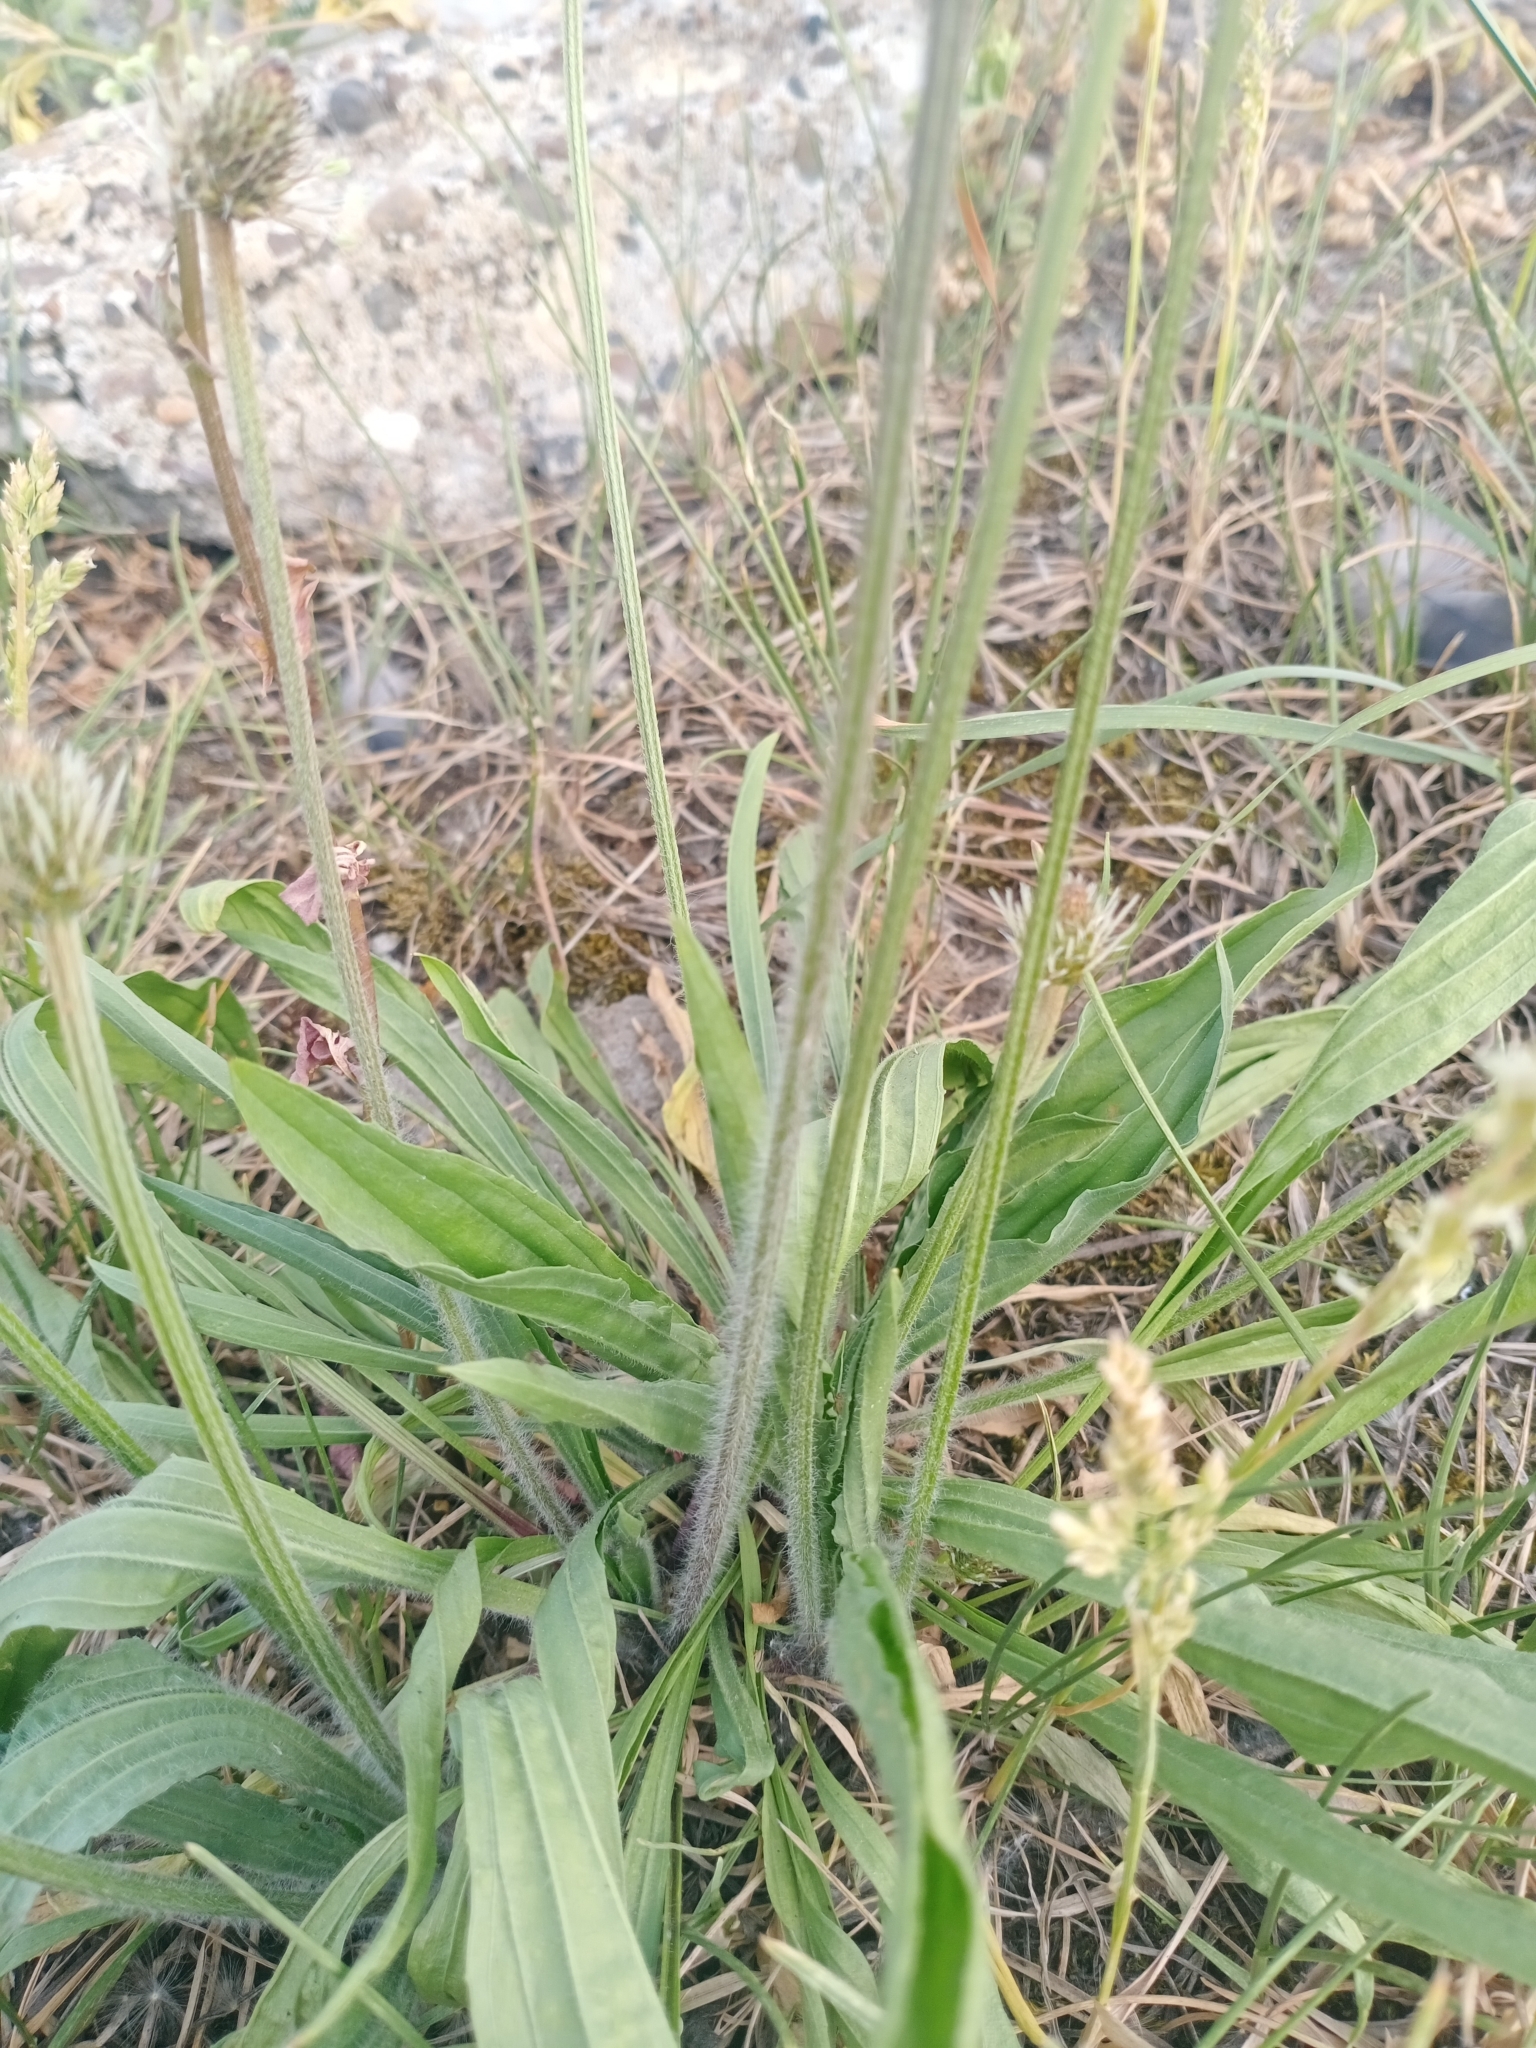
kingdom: Plantae
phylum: Tracheophyta
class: Magnoliopsida
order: Lamiales
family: Plantaginaceae
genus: Plantago
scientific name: Plantago lanceolata
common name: Ribwort plantain
